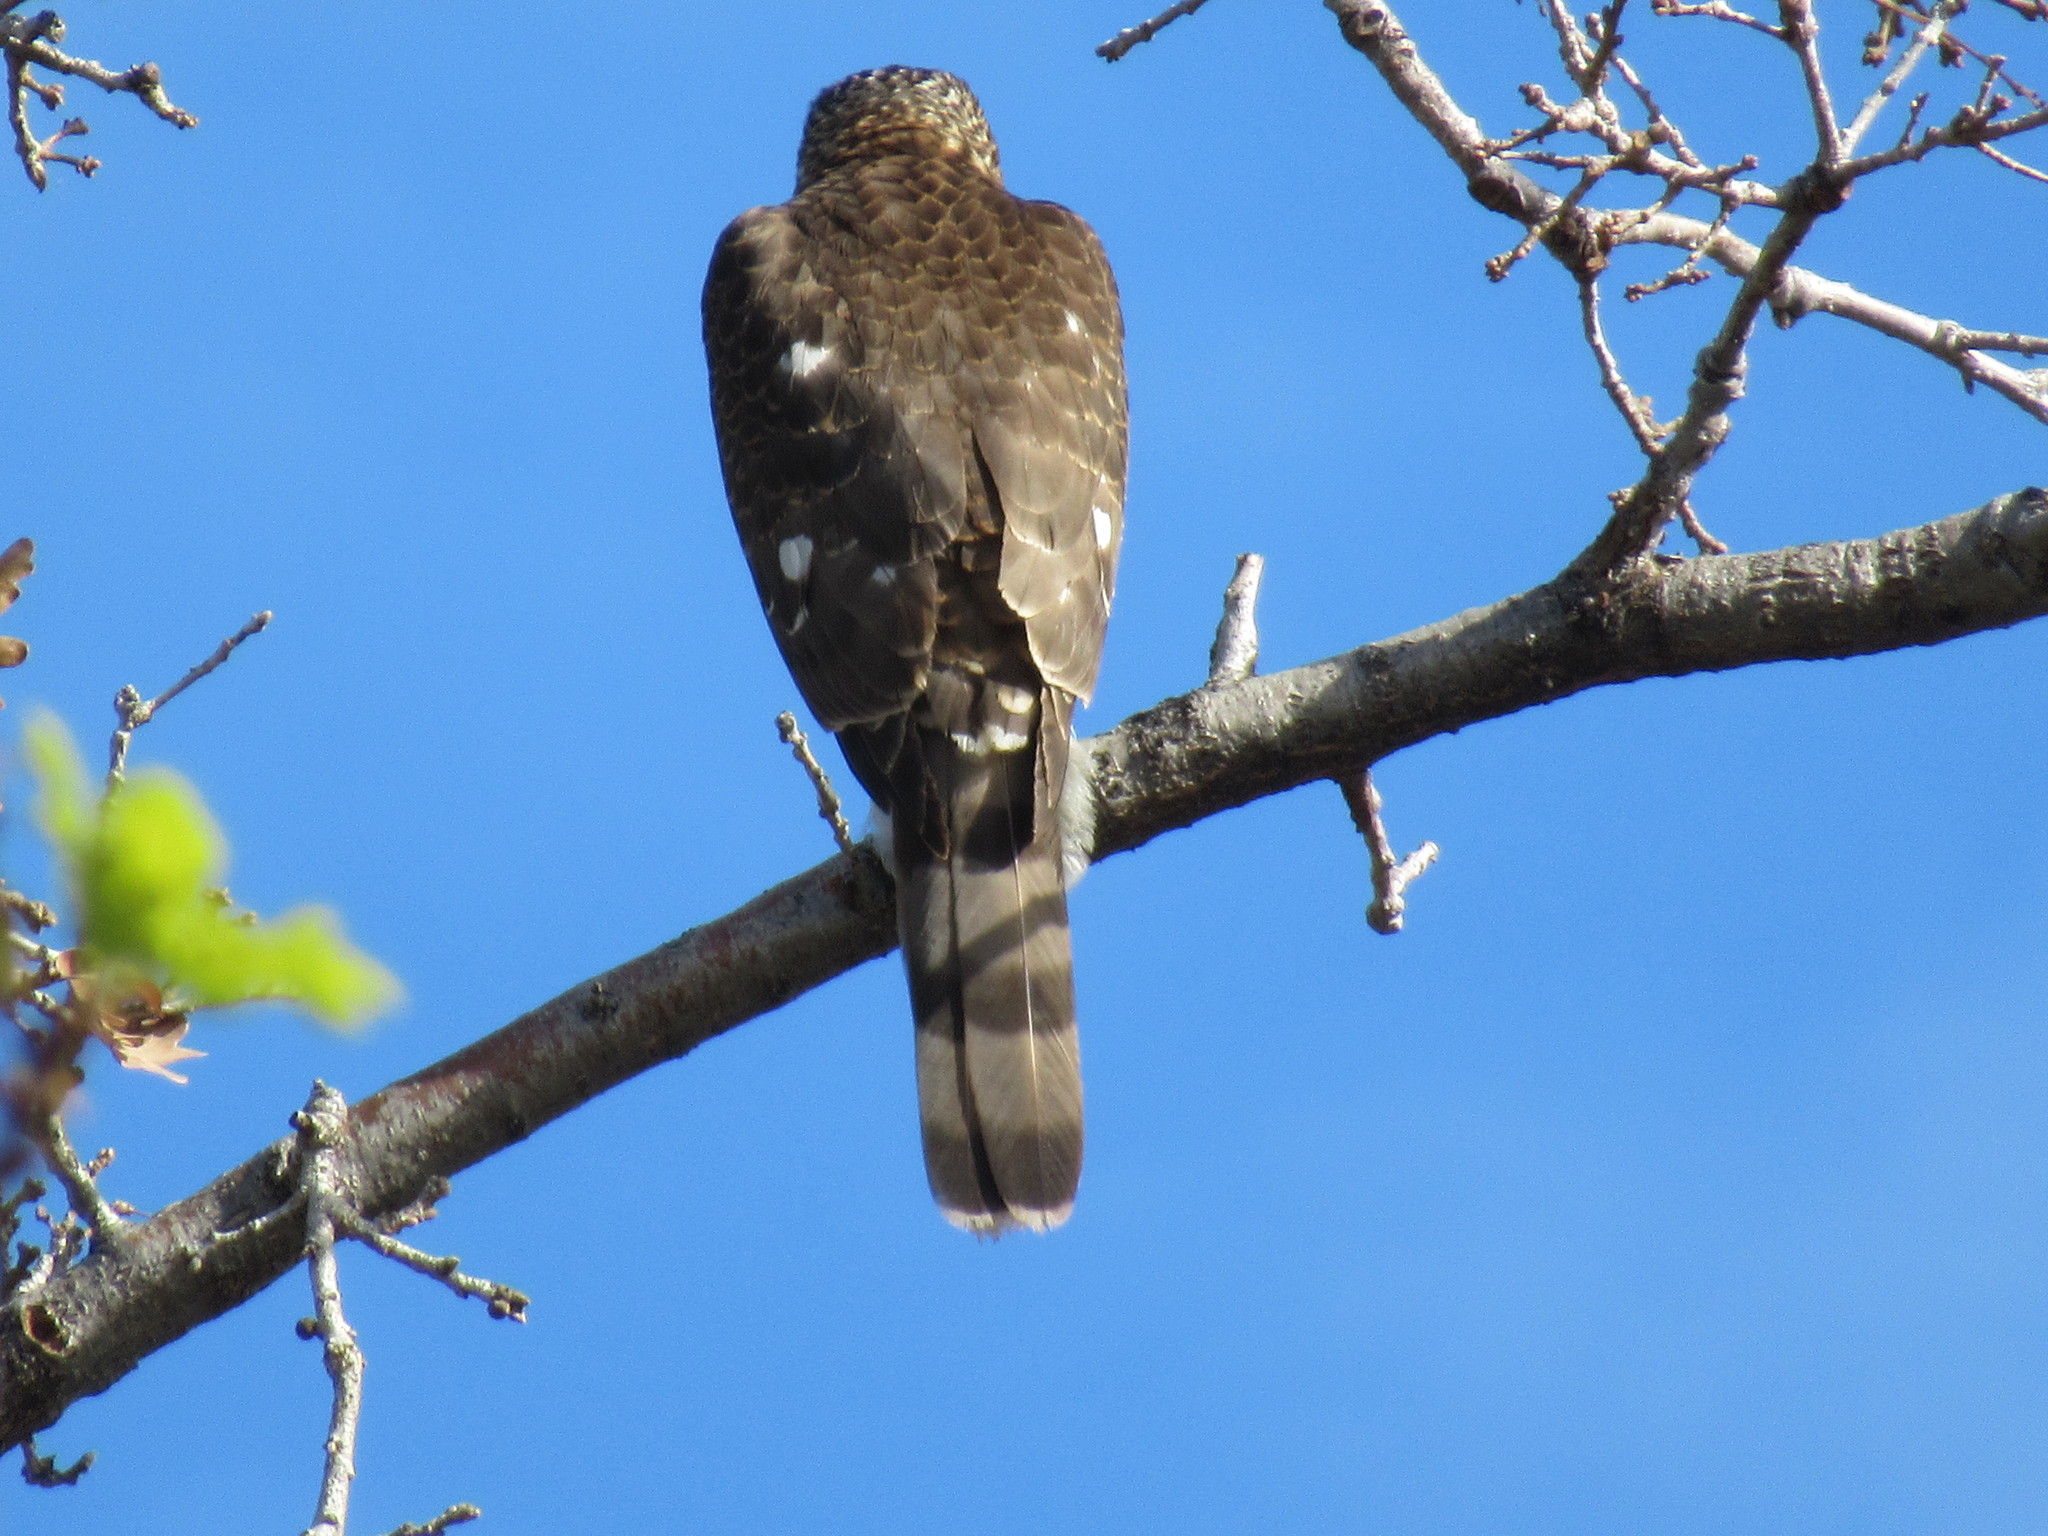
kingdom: Animalia
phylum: Chordata
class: Aves
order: Accipitriformes
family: Accipitridae
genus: Accipiter
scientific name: Accipiter cooperii
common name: Cooper's hawk
